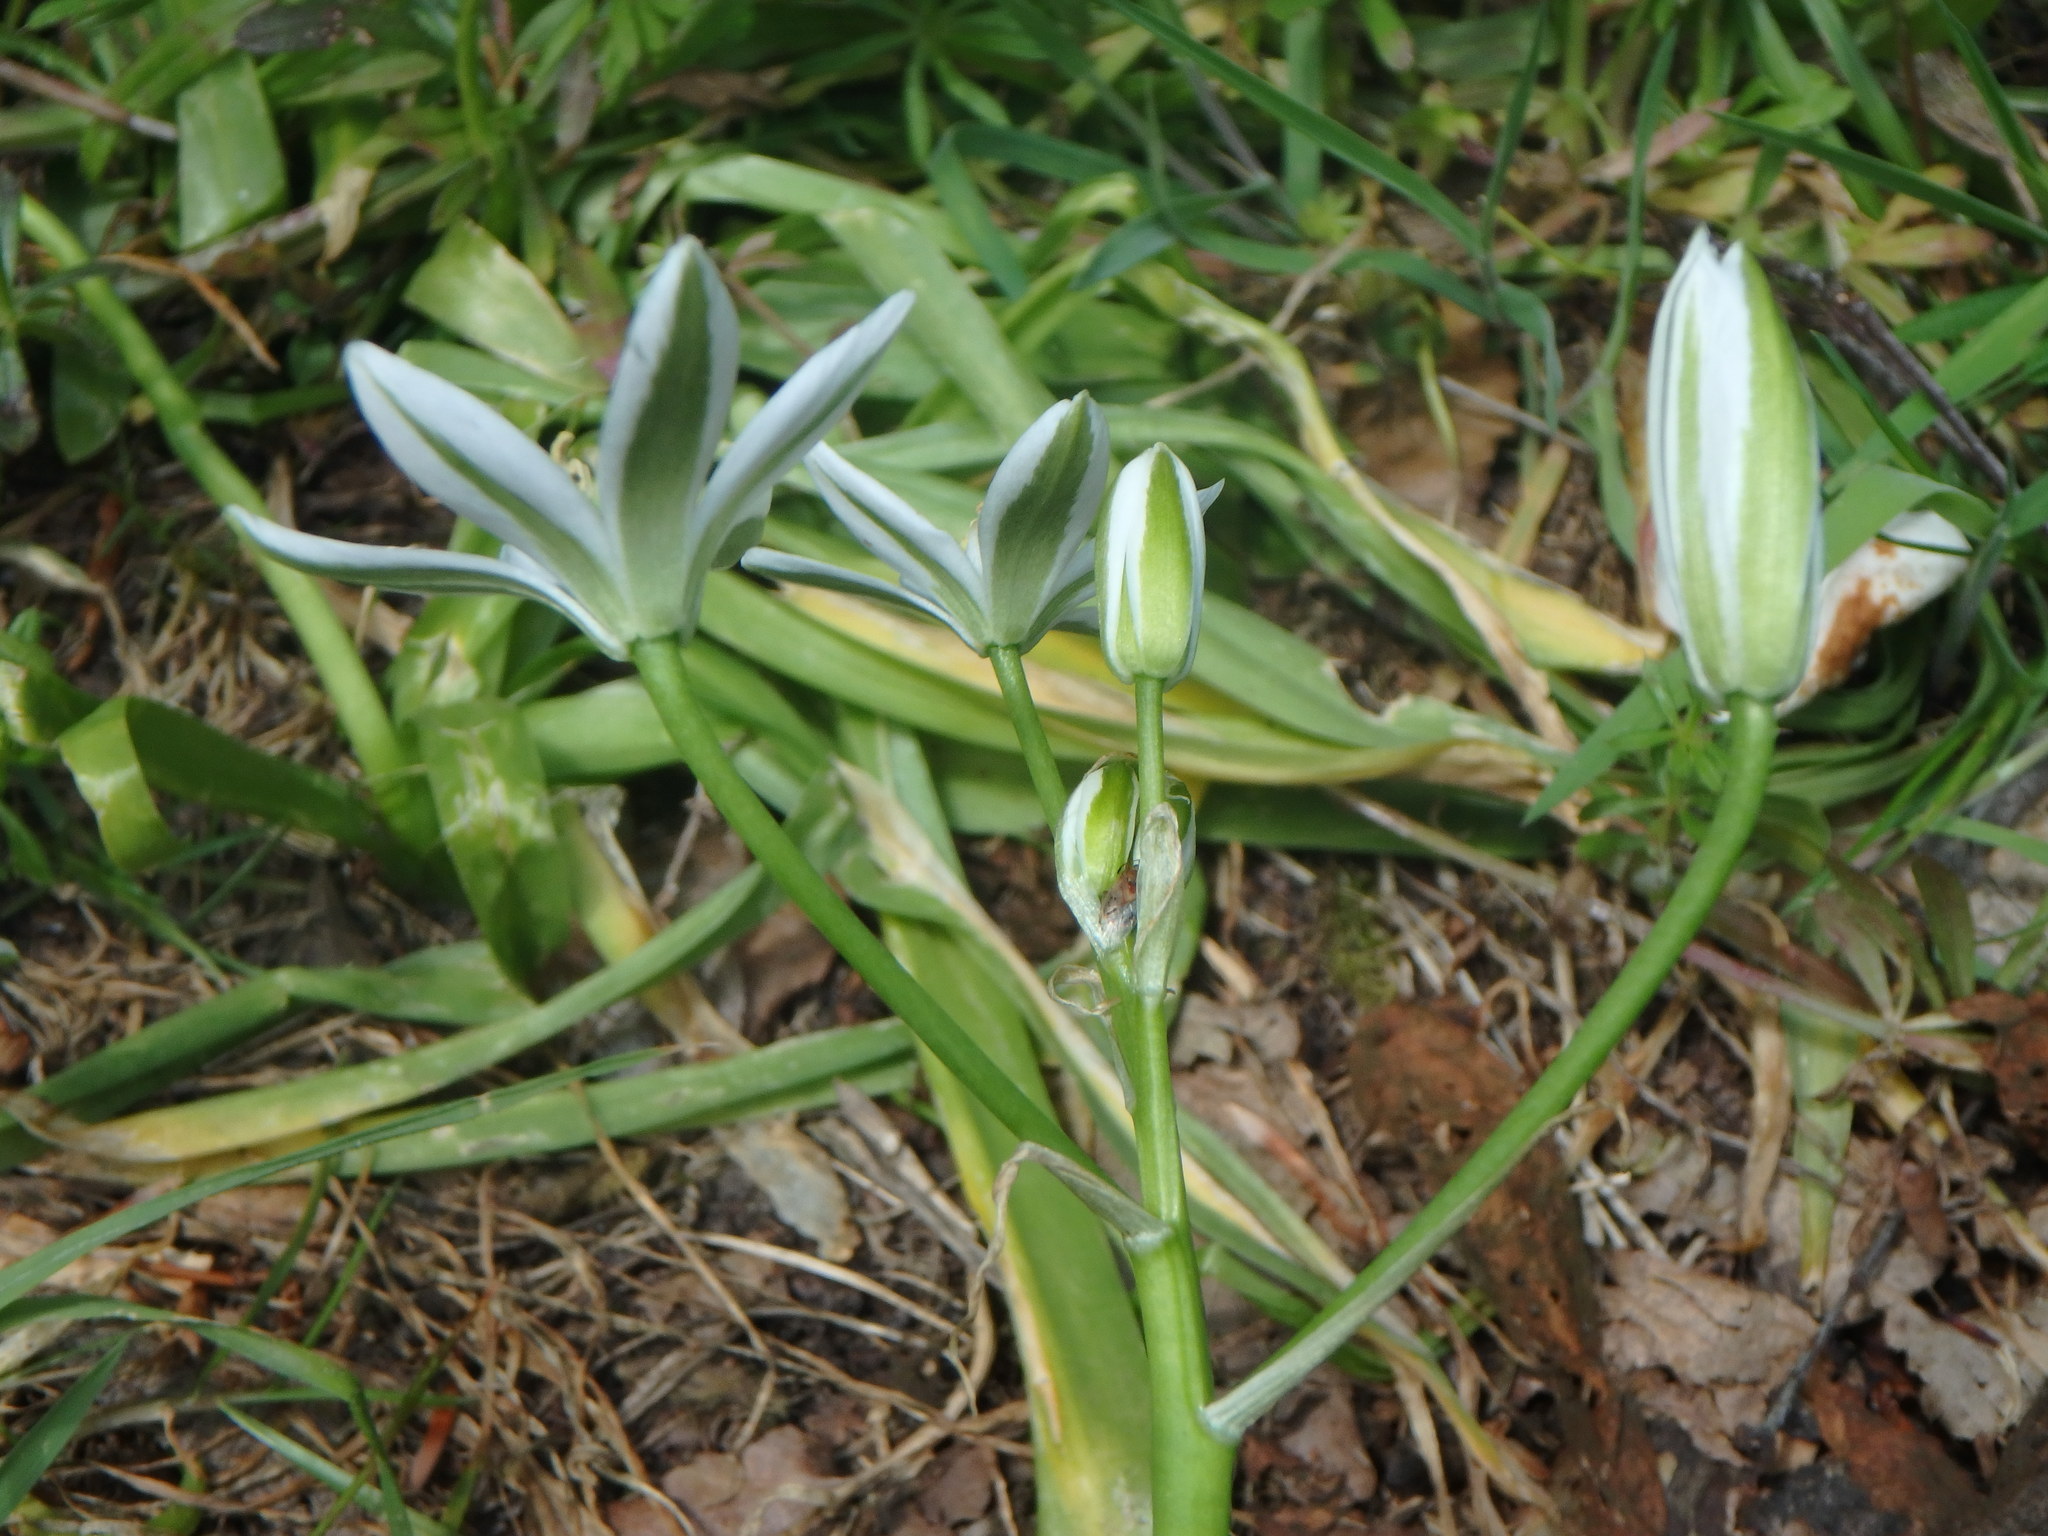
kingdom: Plantae
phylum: Tracheophyta
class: Liliopsida
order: Asparagales
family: Asparagaceae
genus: Ornithogalum
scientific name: Ornithogalum umbellatum
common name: Garden star-of-bethlehem
